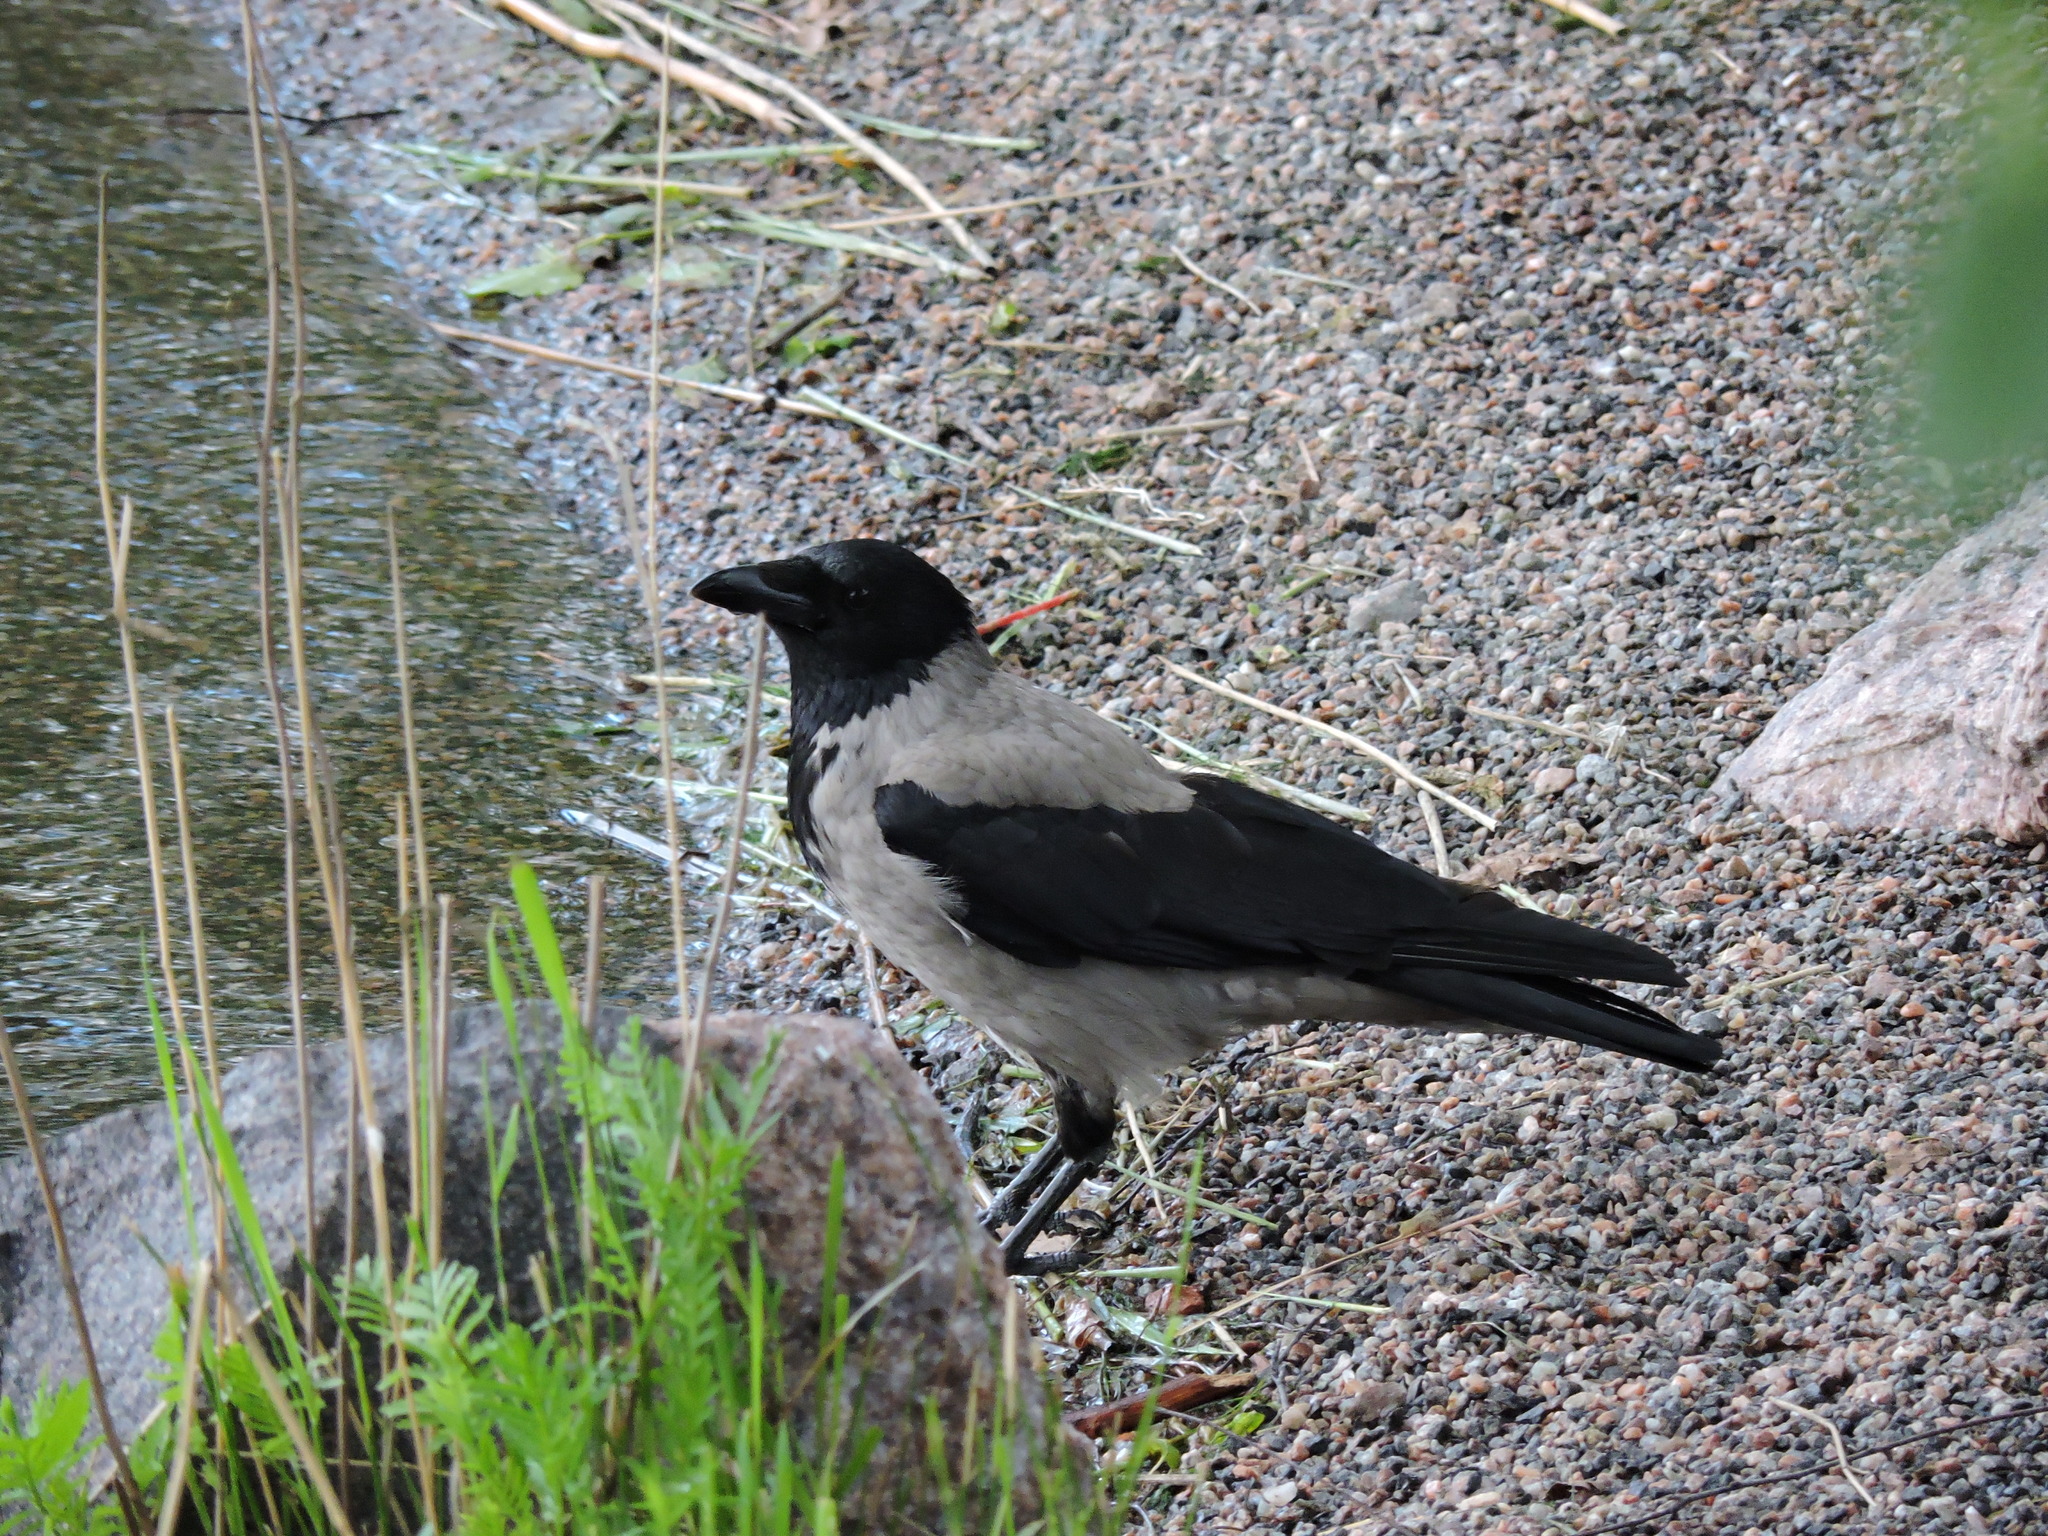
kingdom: Animalia
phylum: Chordata
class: Aves
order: Passeriformes
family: Corvidae
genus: Corvus
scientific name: Corvus cornix
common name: Hooded crow
